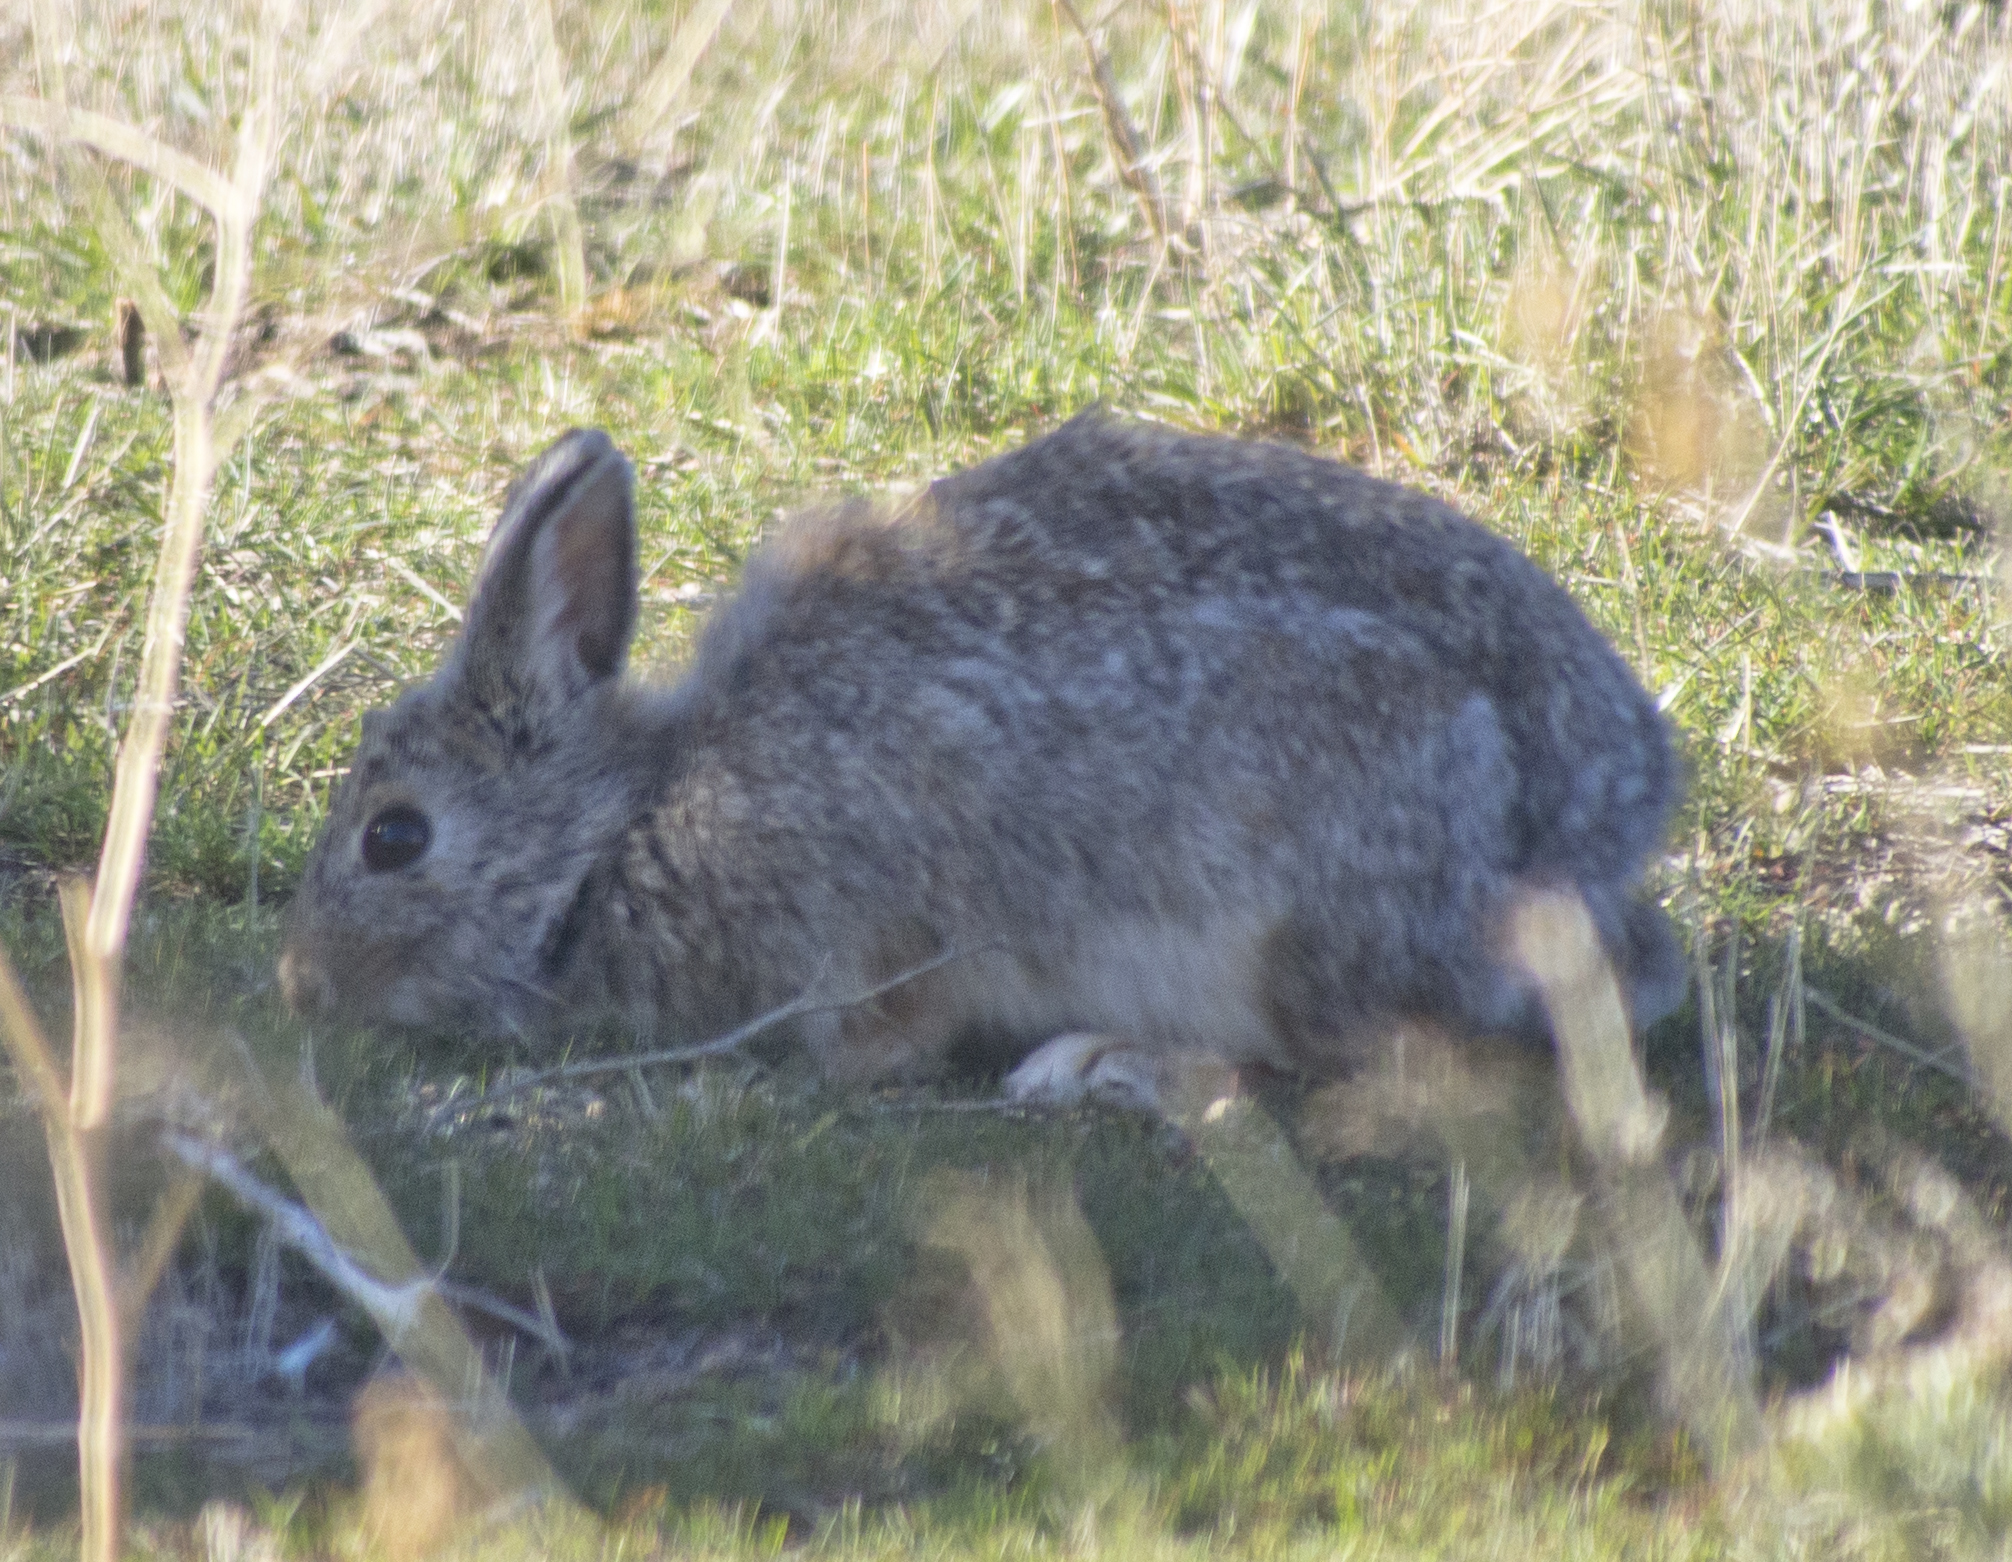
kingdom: Animalia
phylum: Chordata
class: Mammalia
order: Lagomorpha
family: Leporidae
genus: Sylvilagus
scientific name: Sylvilagus nuttallii
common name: Mountain cottontail
